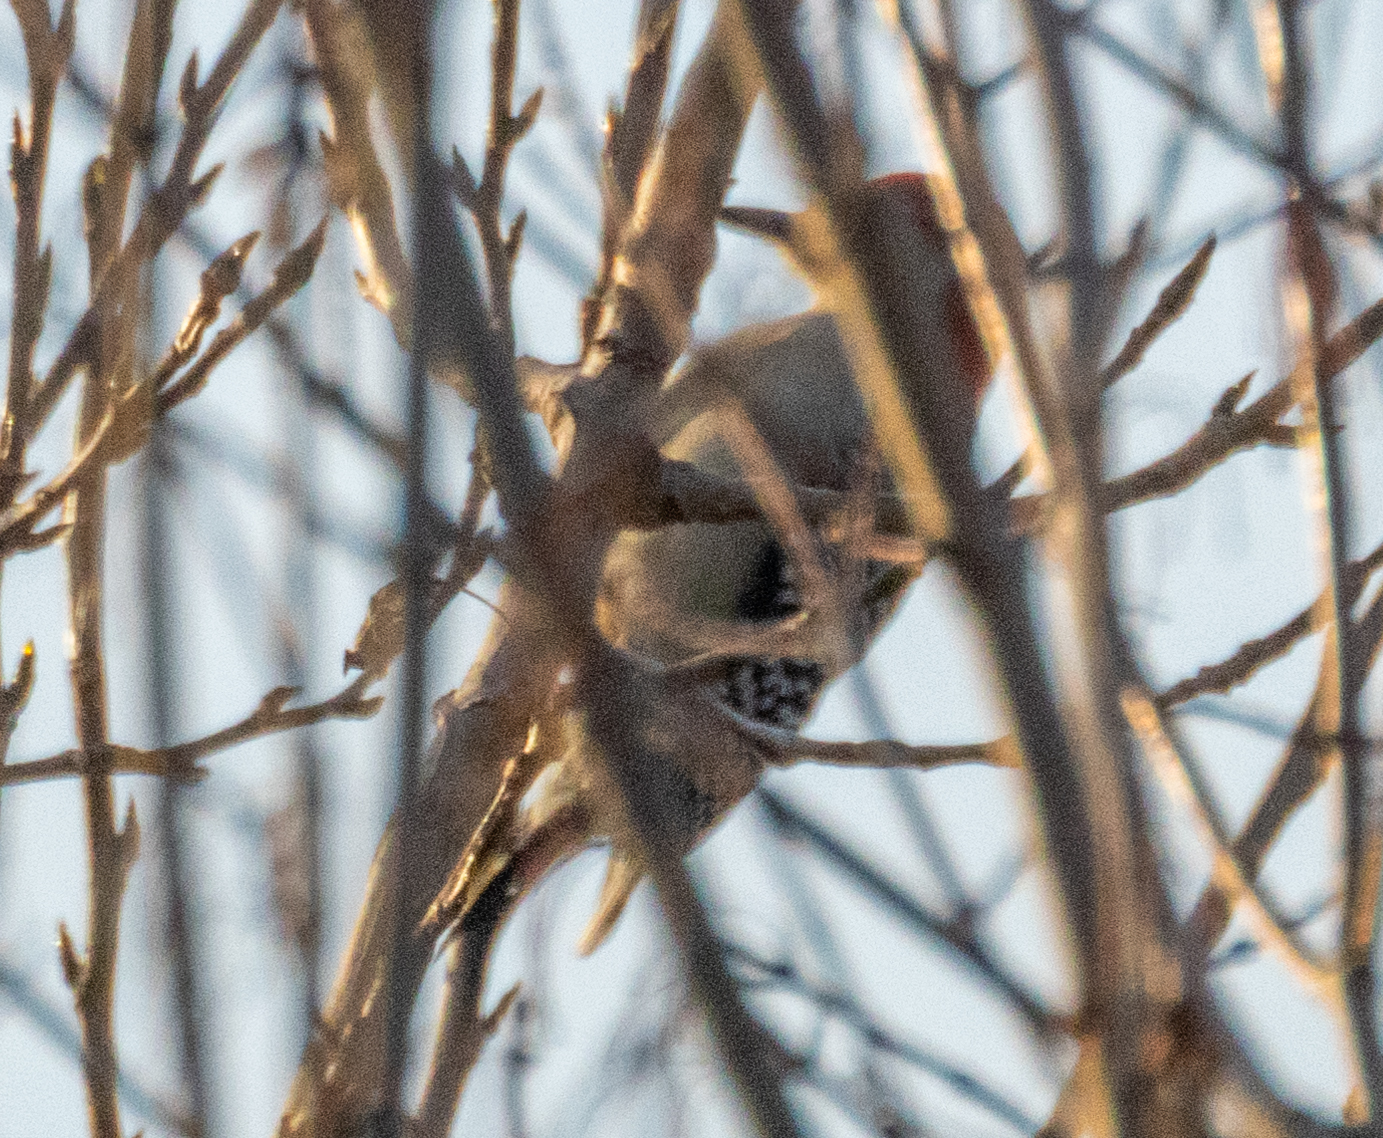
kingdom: Animalia
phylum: Chordata
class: Aves
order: Piciformes
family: Picidae
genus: Melanerpes
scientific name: Melanerpes carolinus
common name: Red-bellied woodpecker
